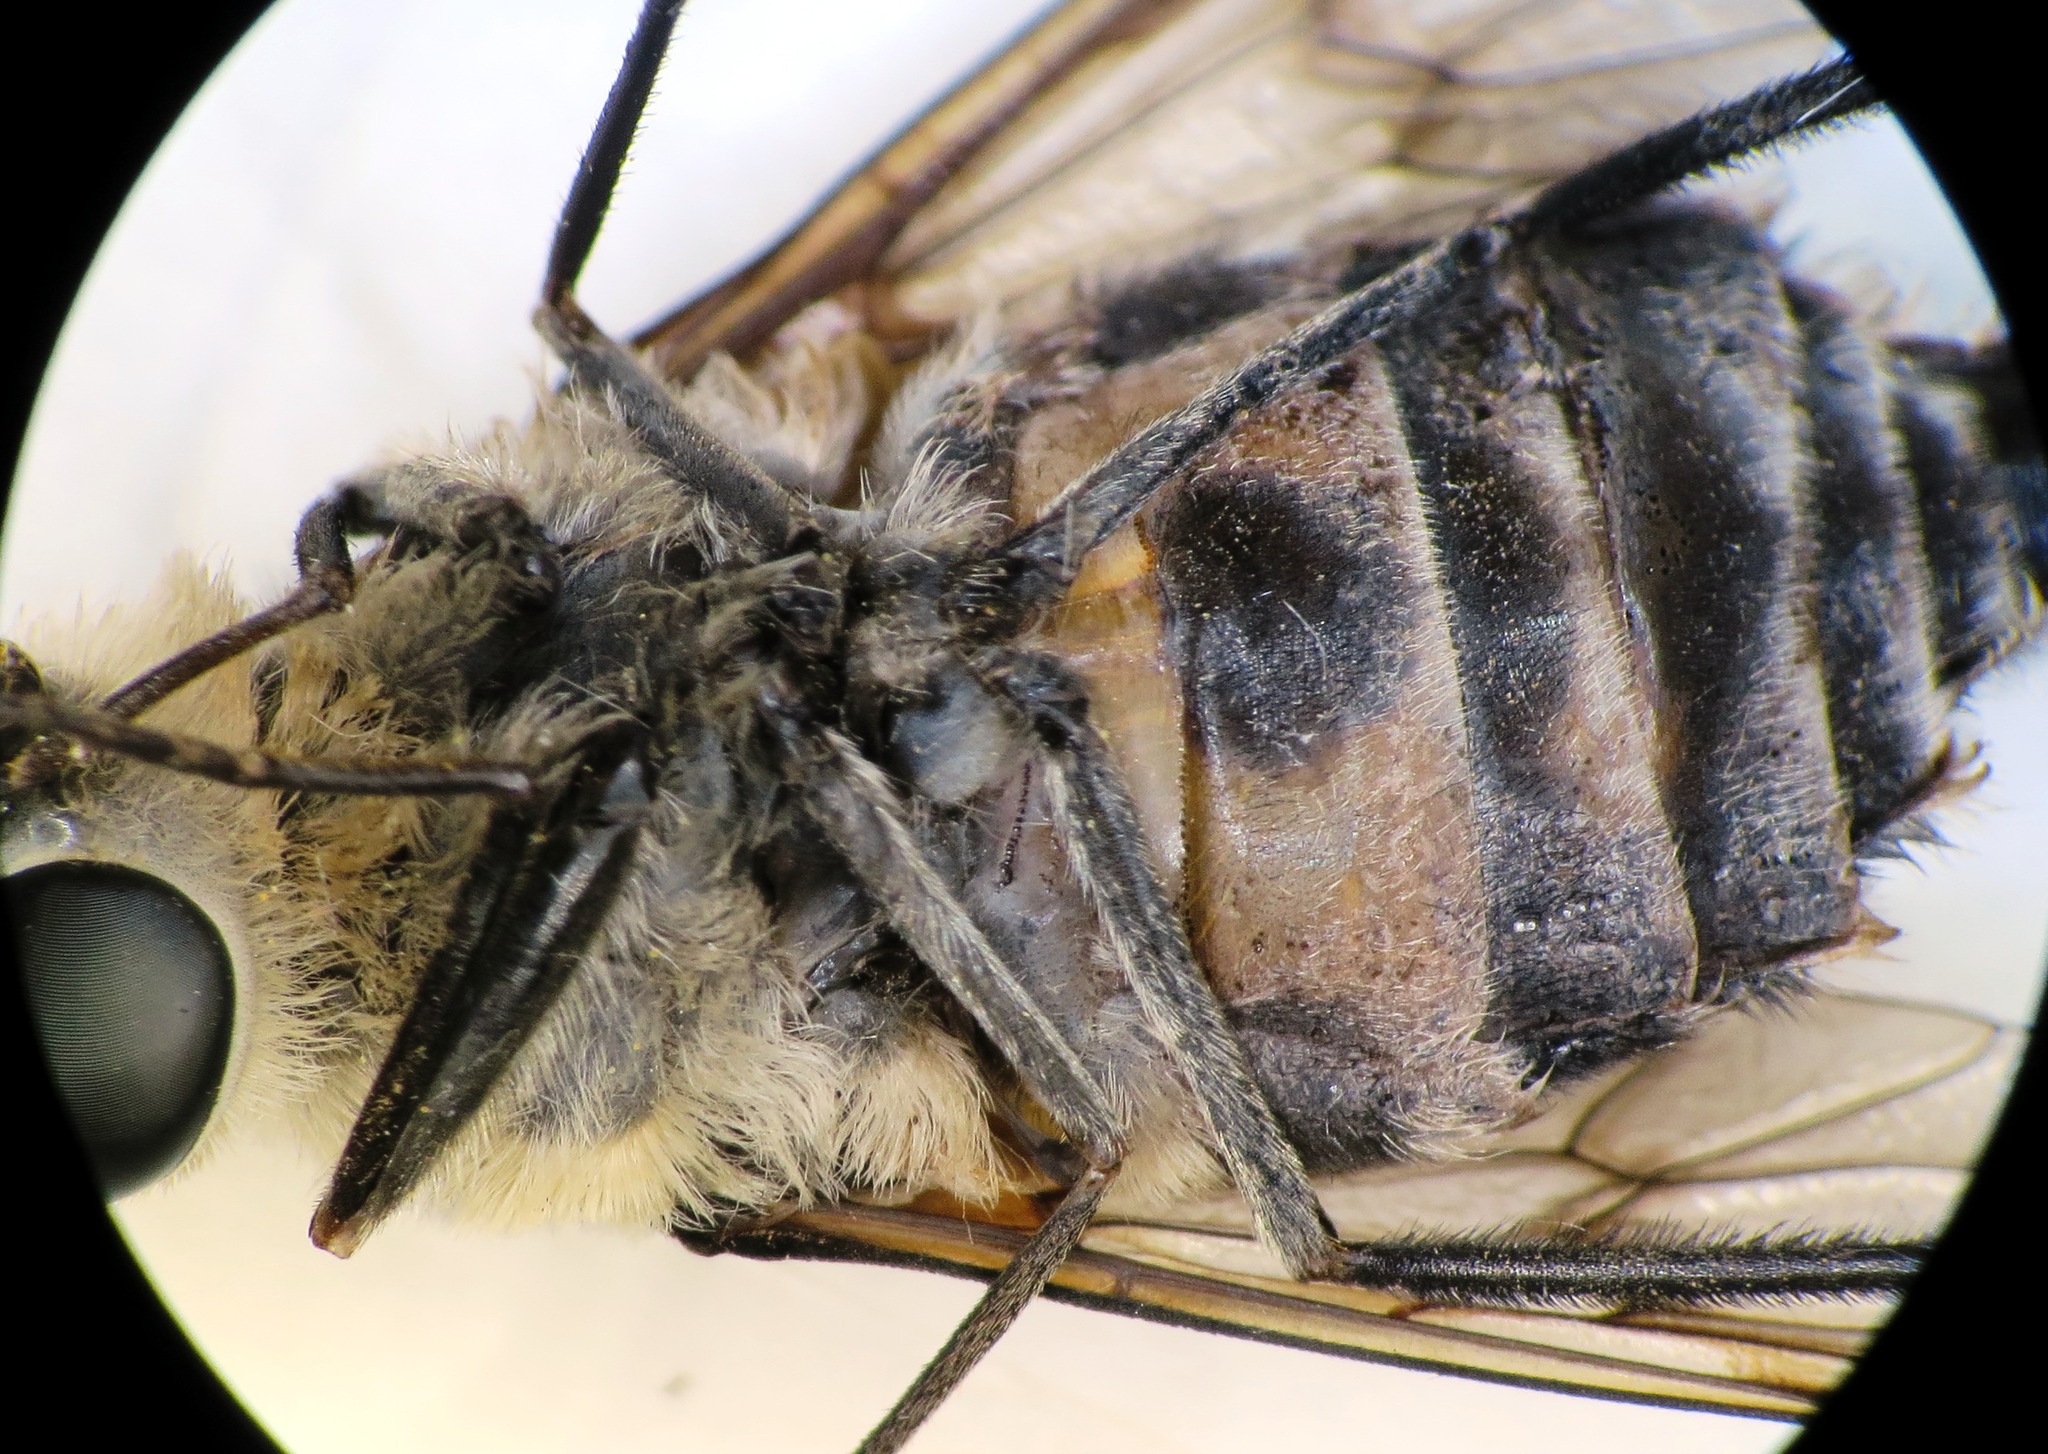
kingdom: Animalia
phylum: Arthropoda
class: Insecta
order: Diptera
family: Tabanidae
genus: Philoliche
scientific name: Philoliche gulosa
